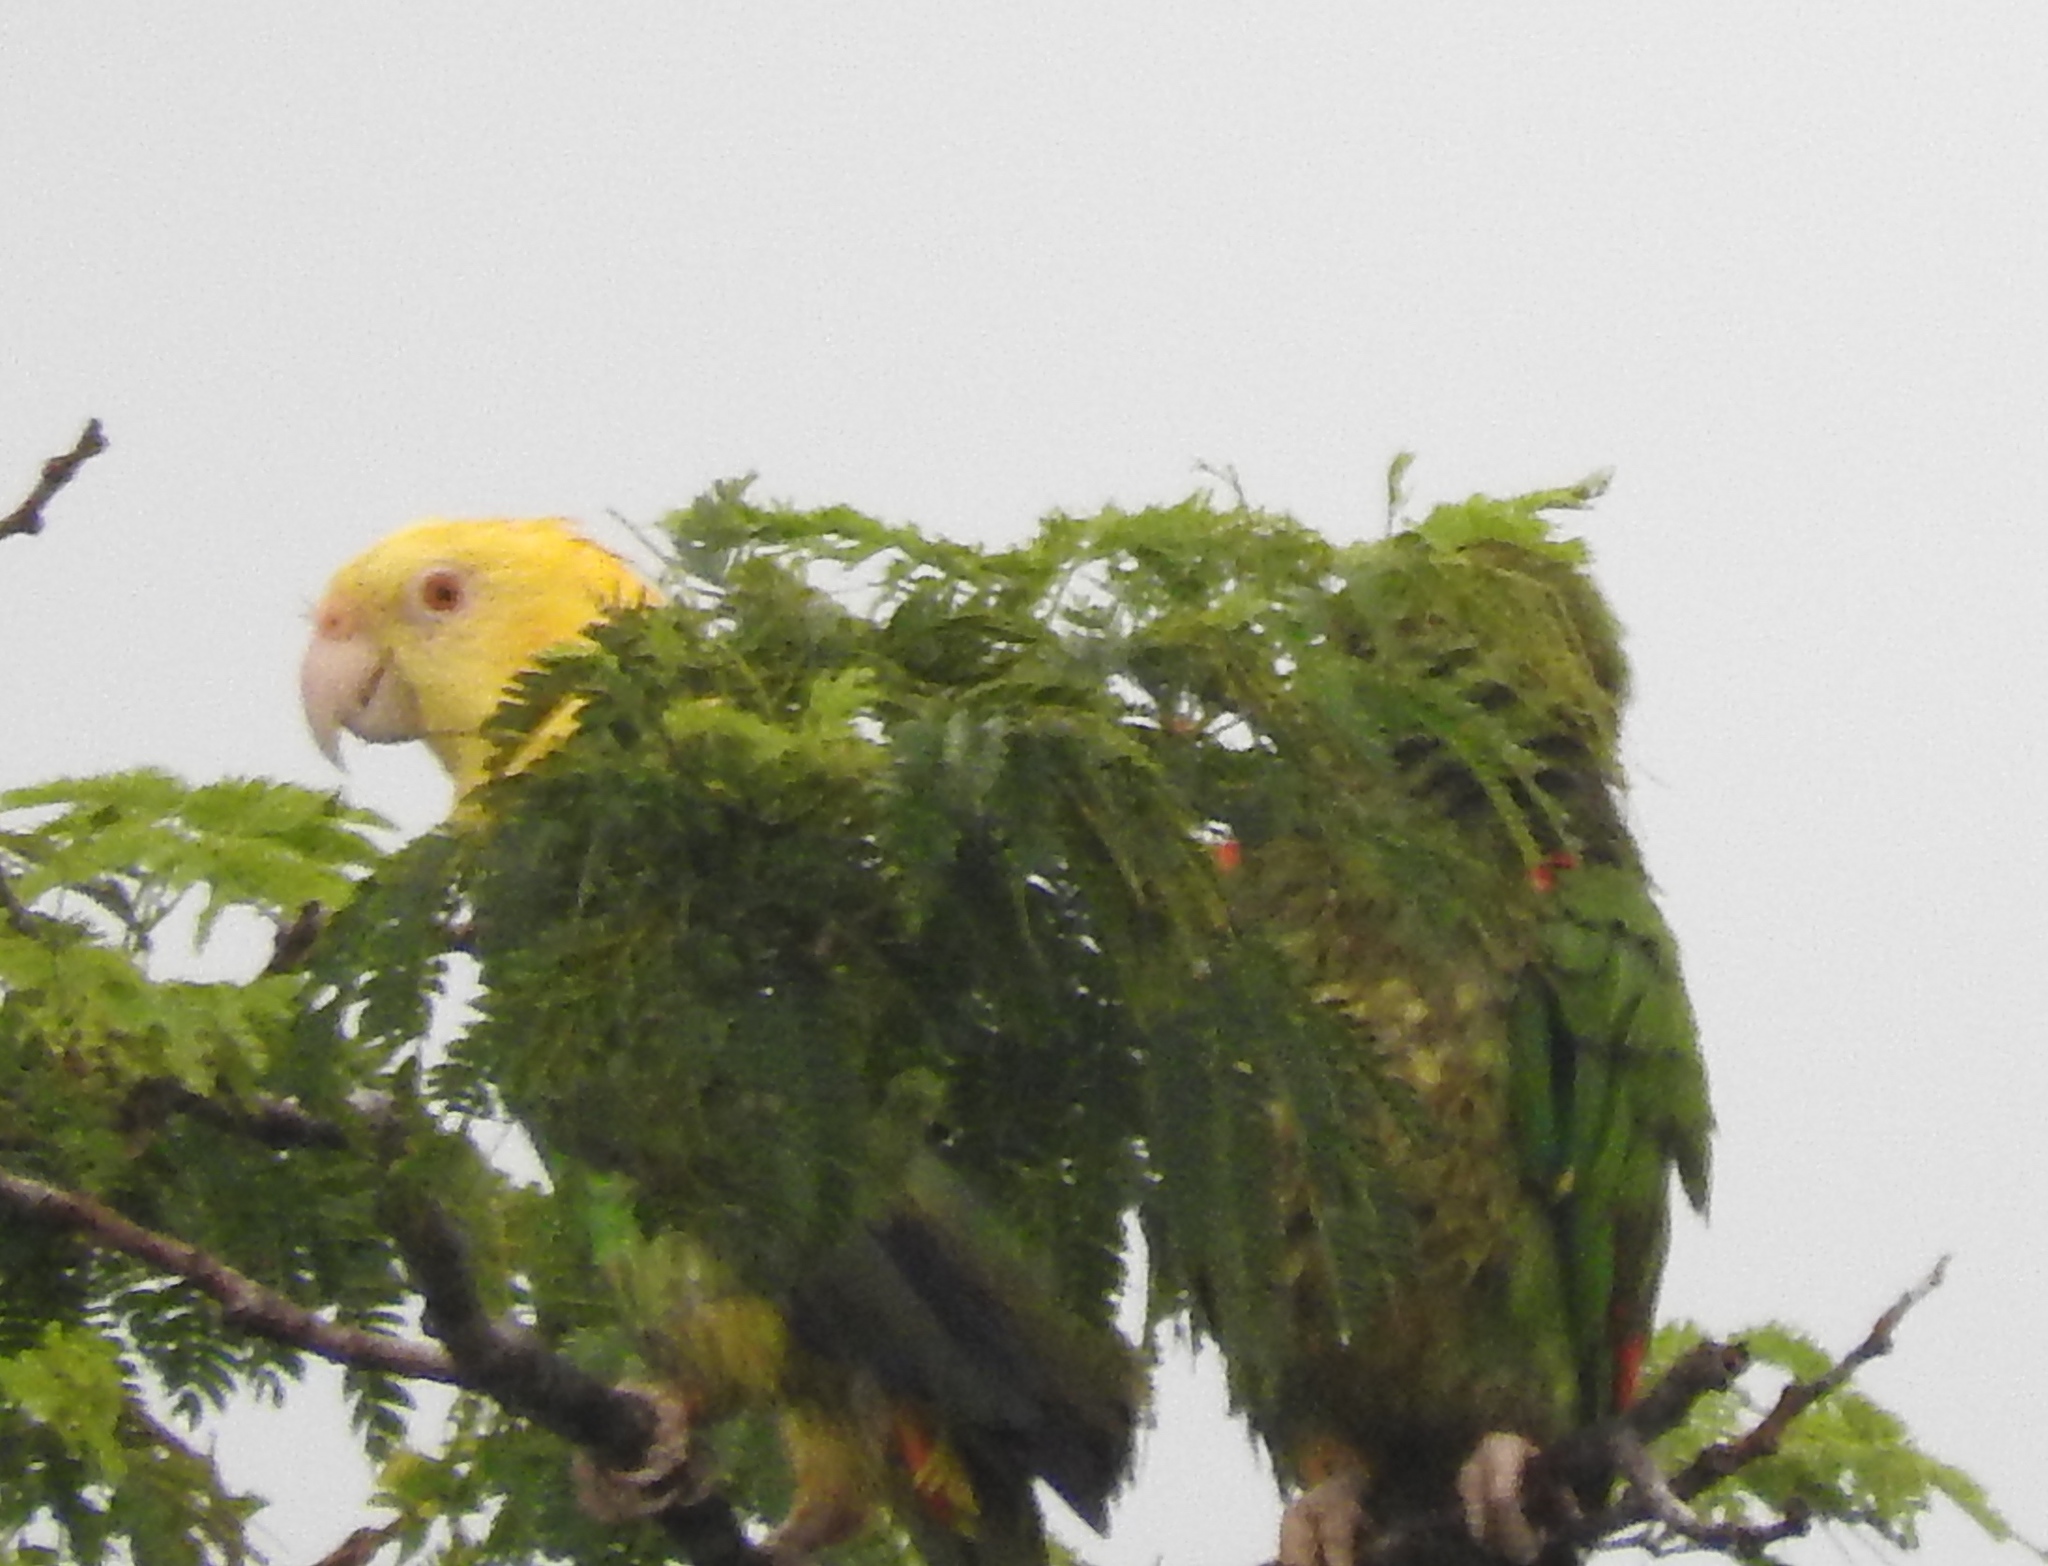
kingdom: Animalia
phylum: Chordata
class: Aves
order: Psittaciformes
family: Psittacidae
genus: Amazona
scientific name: Amazona oratrix
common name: Yellow-headed amazon
